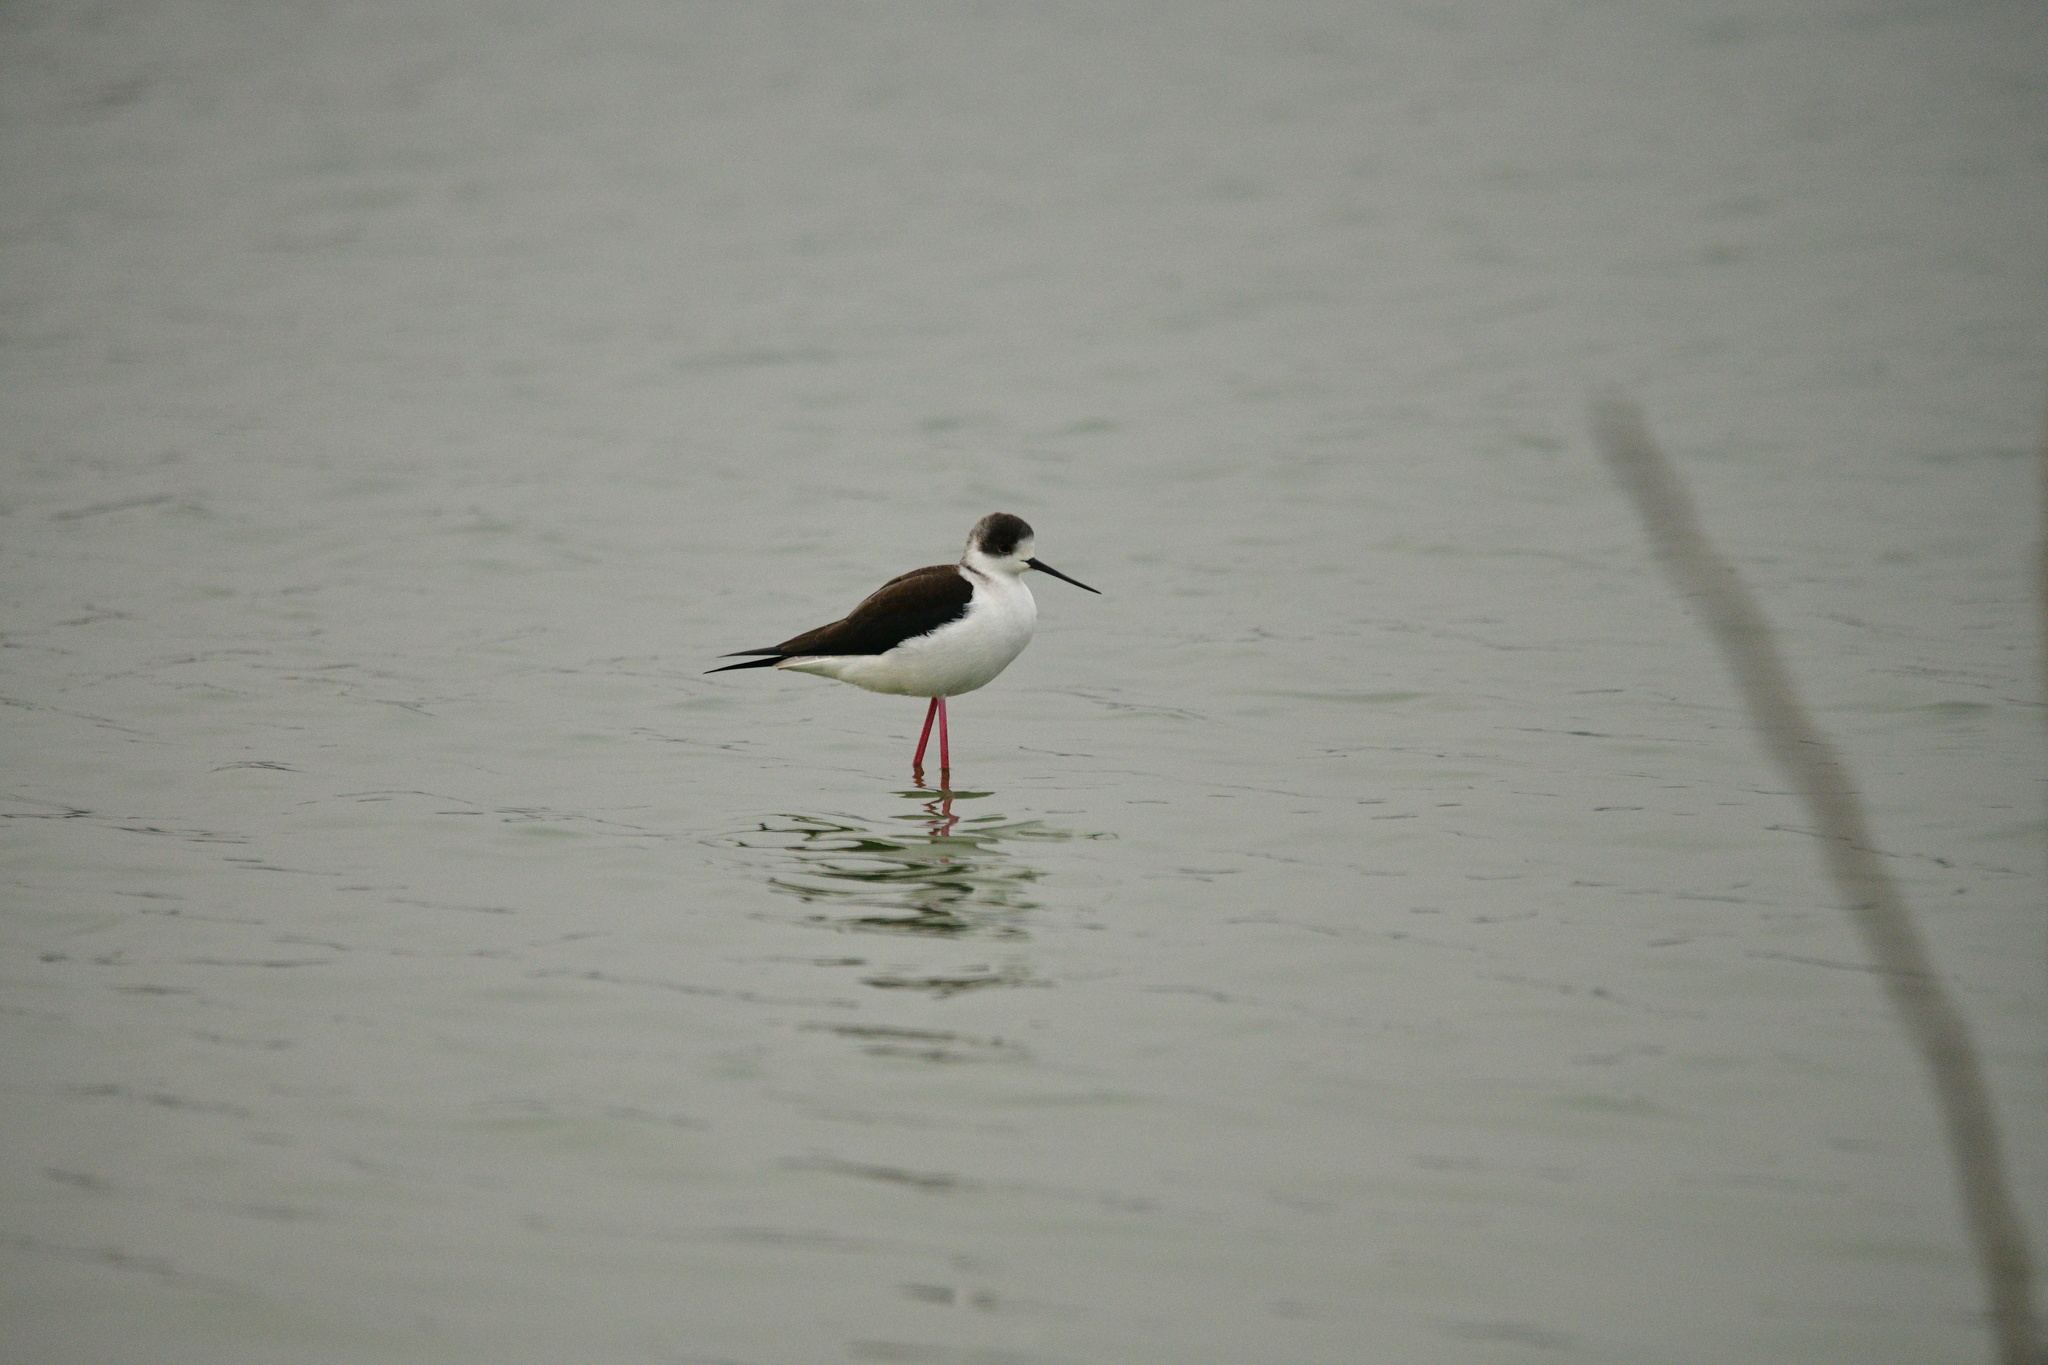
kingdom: Animalia
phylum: Chordata
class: Aves
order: Charadriiformes
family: Recurvirostridae
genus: Himantopus
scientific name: Himantopus himantopus
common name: Black-winged stilt
